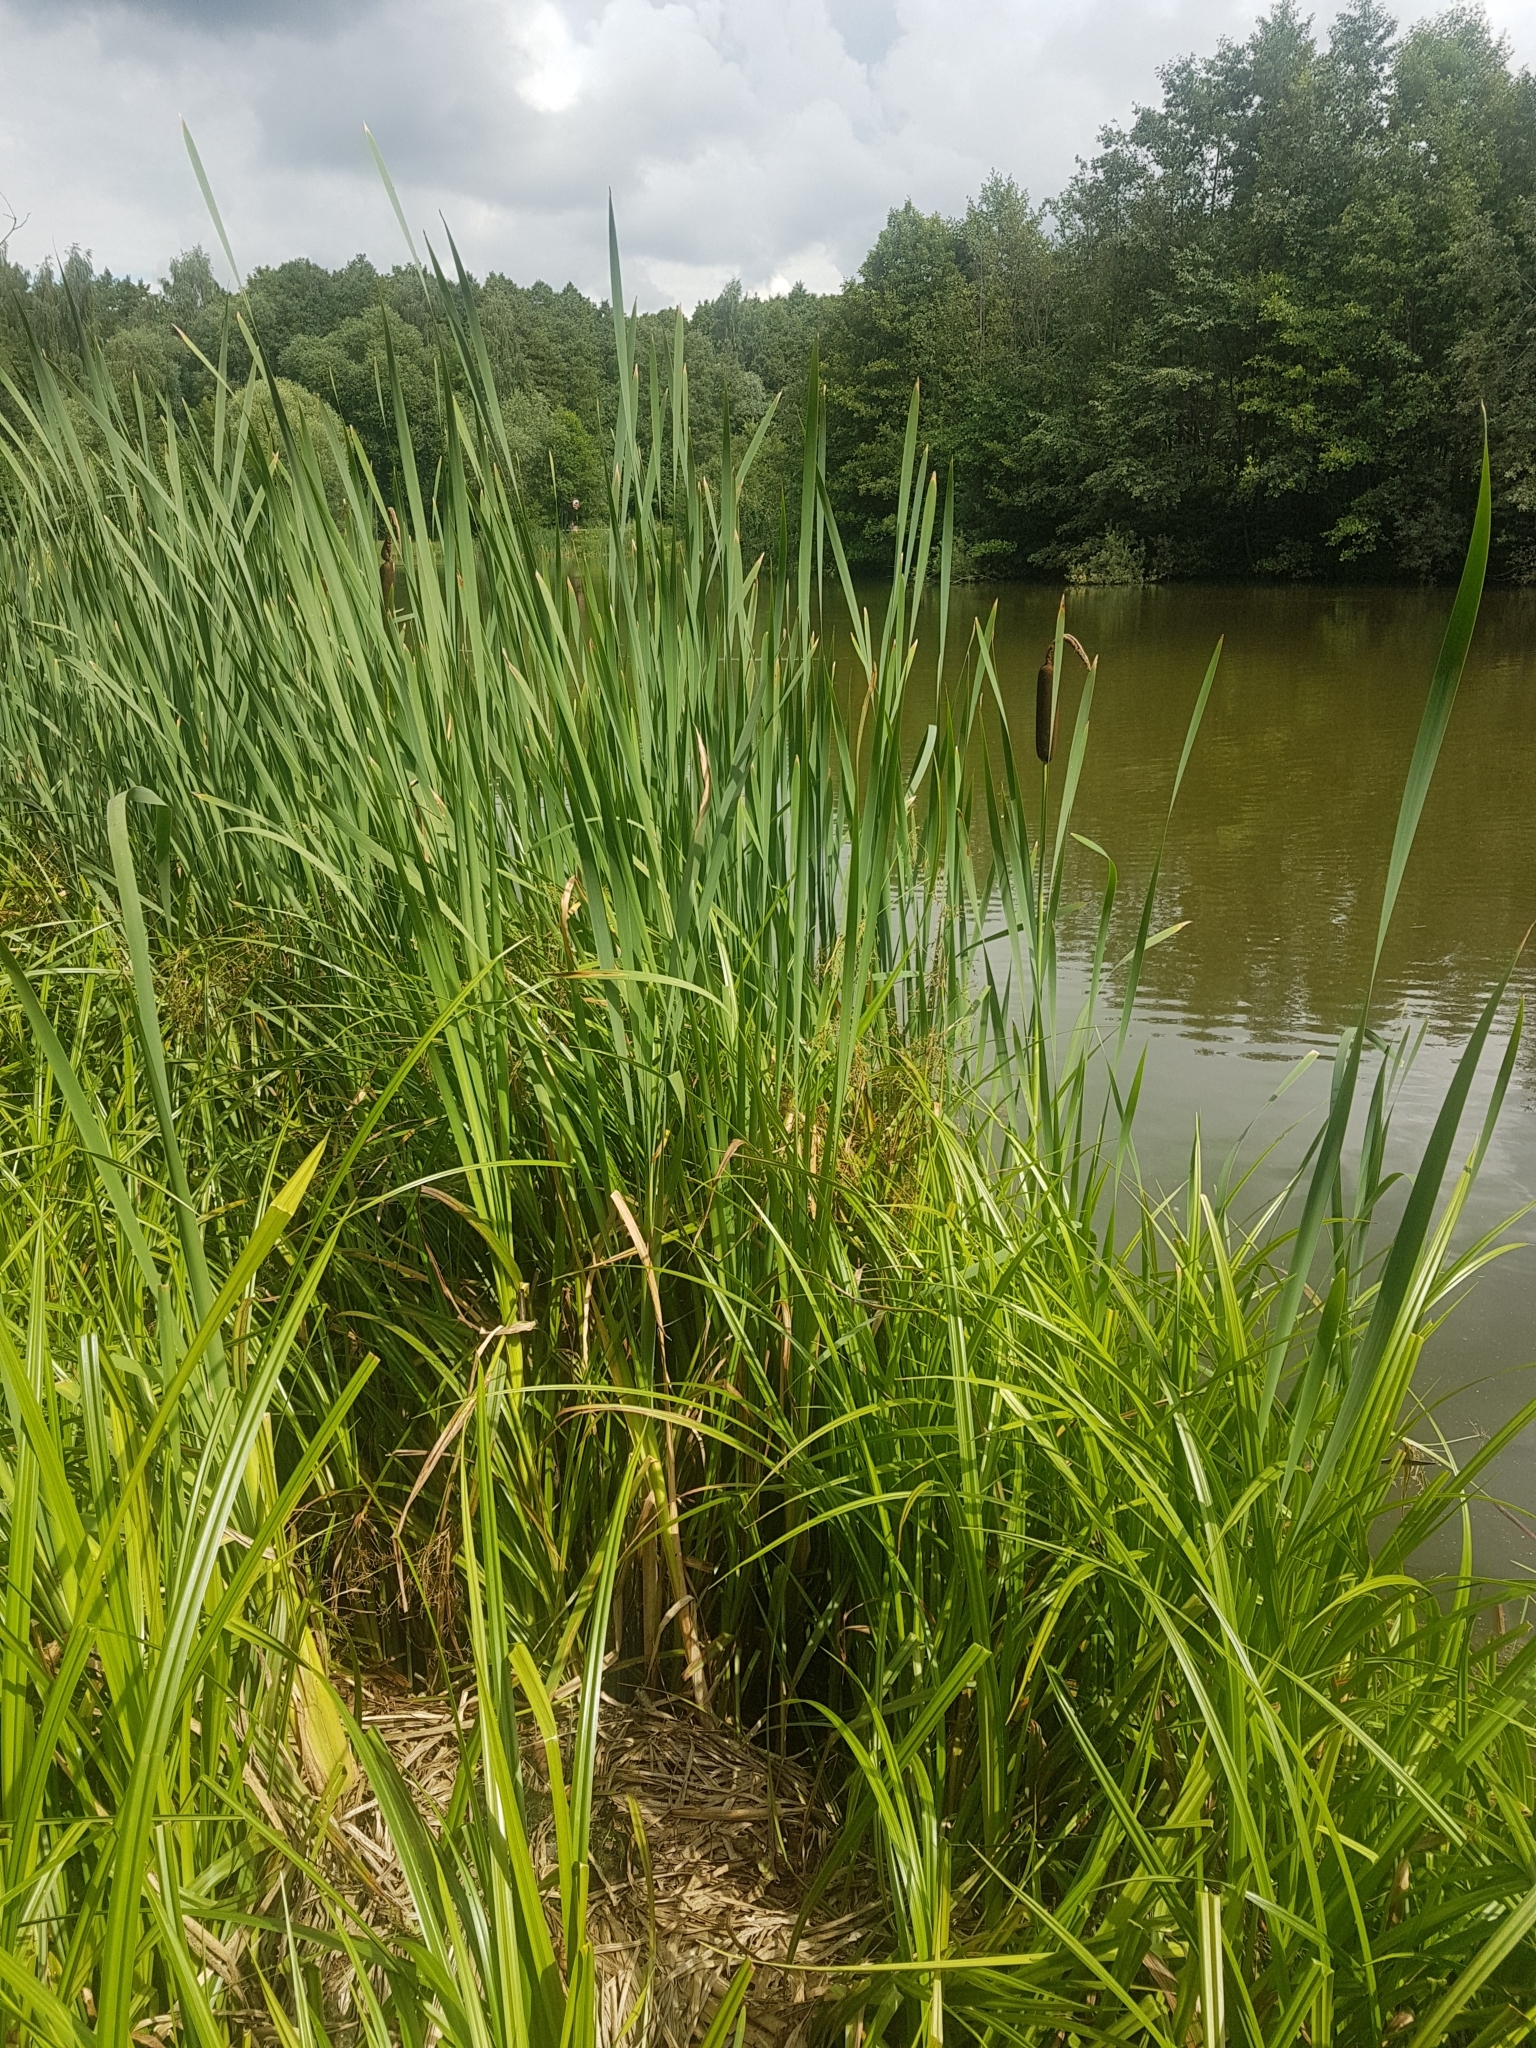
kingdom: Plantae
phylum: Tracheophyta
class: Liliopsida
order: Poales
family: Typhaceae
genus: Typha
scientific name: Typha latifolia
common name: Broadleaf cattail
